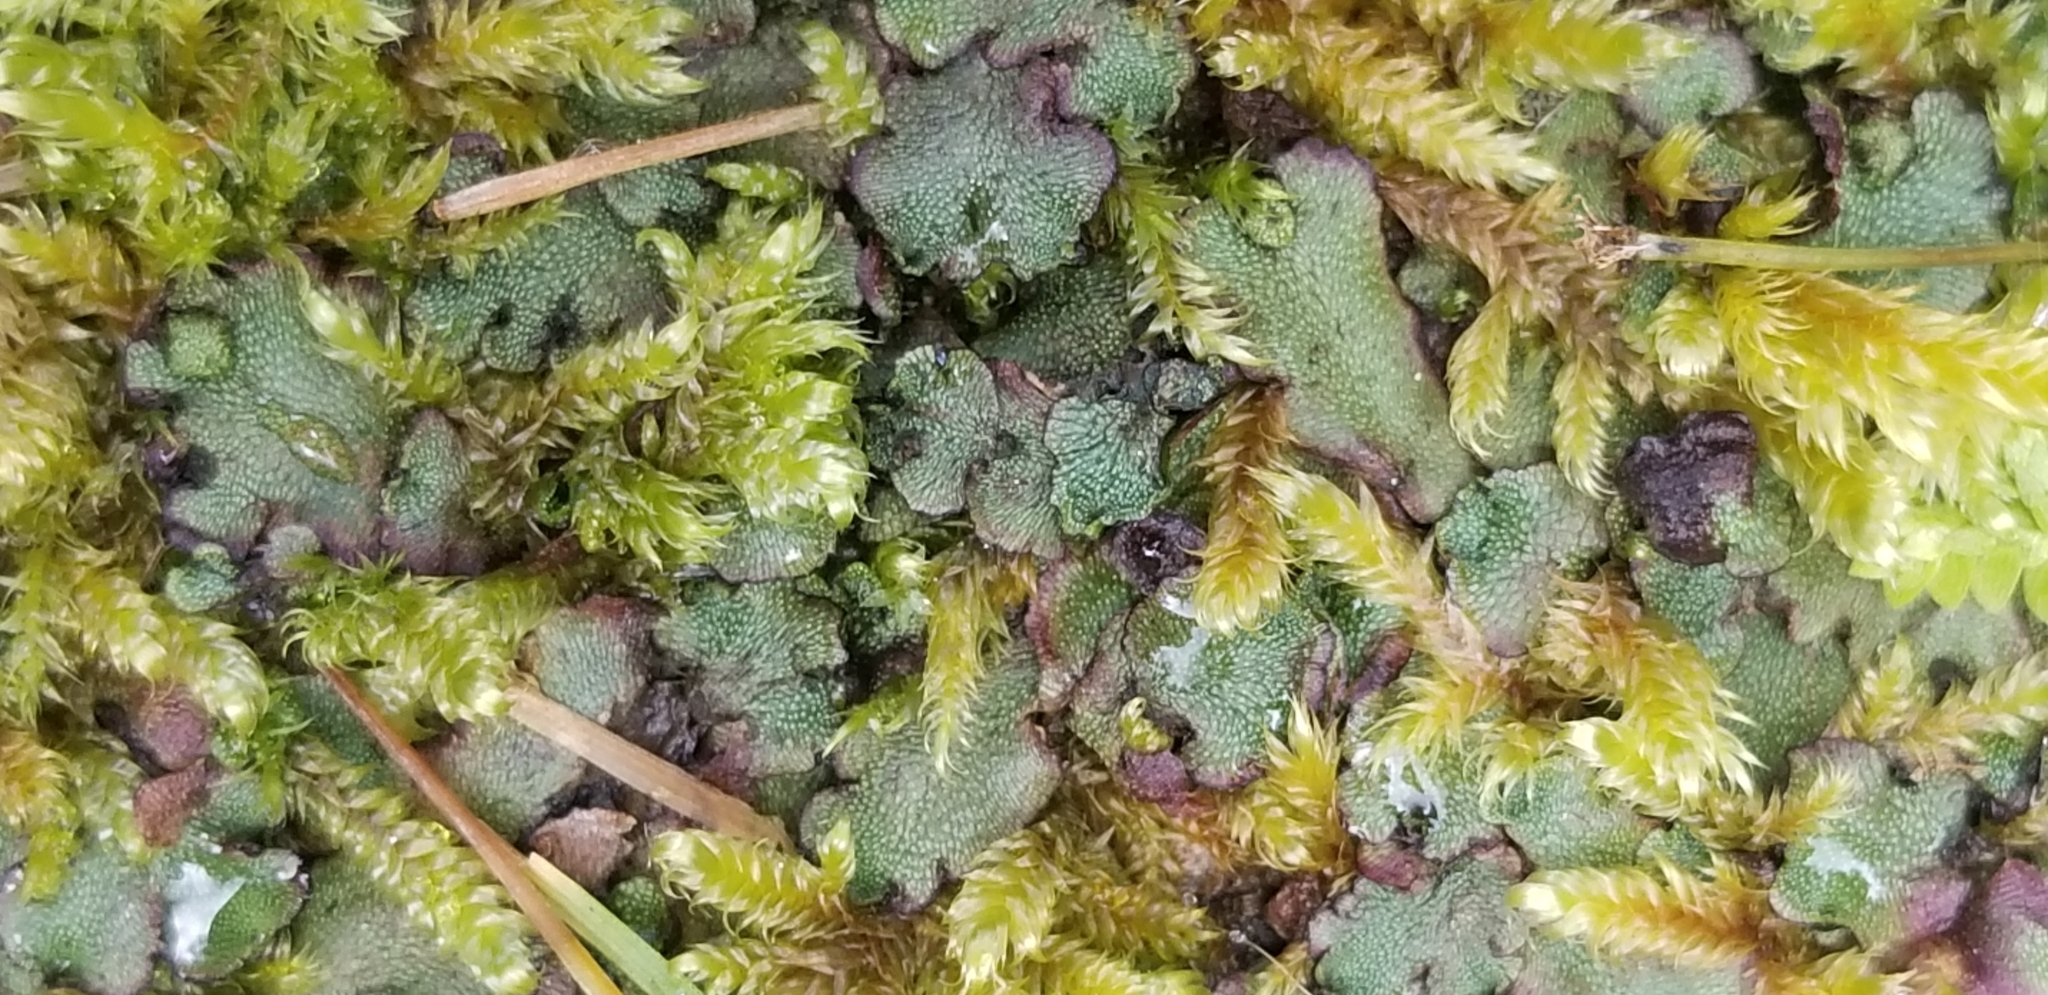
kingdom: Plantae
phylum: Marchantiophyta
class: Marchantiopsida
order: Marchantiales
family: Marchantiaceae
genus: Marchantia
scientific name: Marchantia quadrata
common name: Narrow mushroom-headed liverwort
